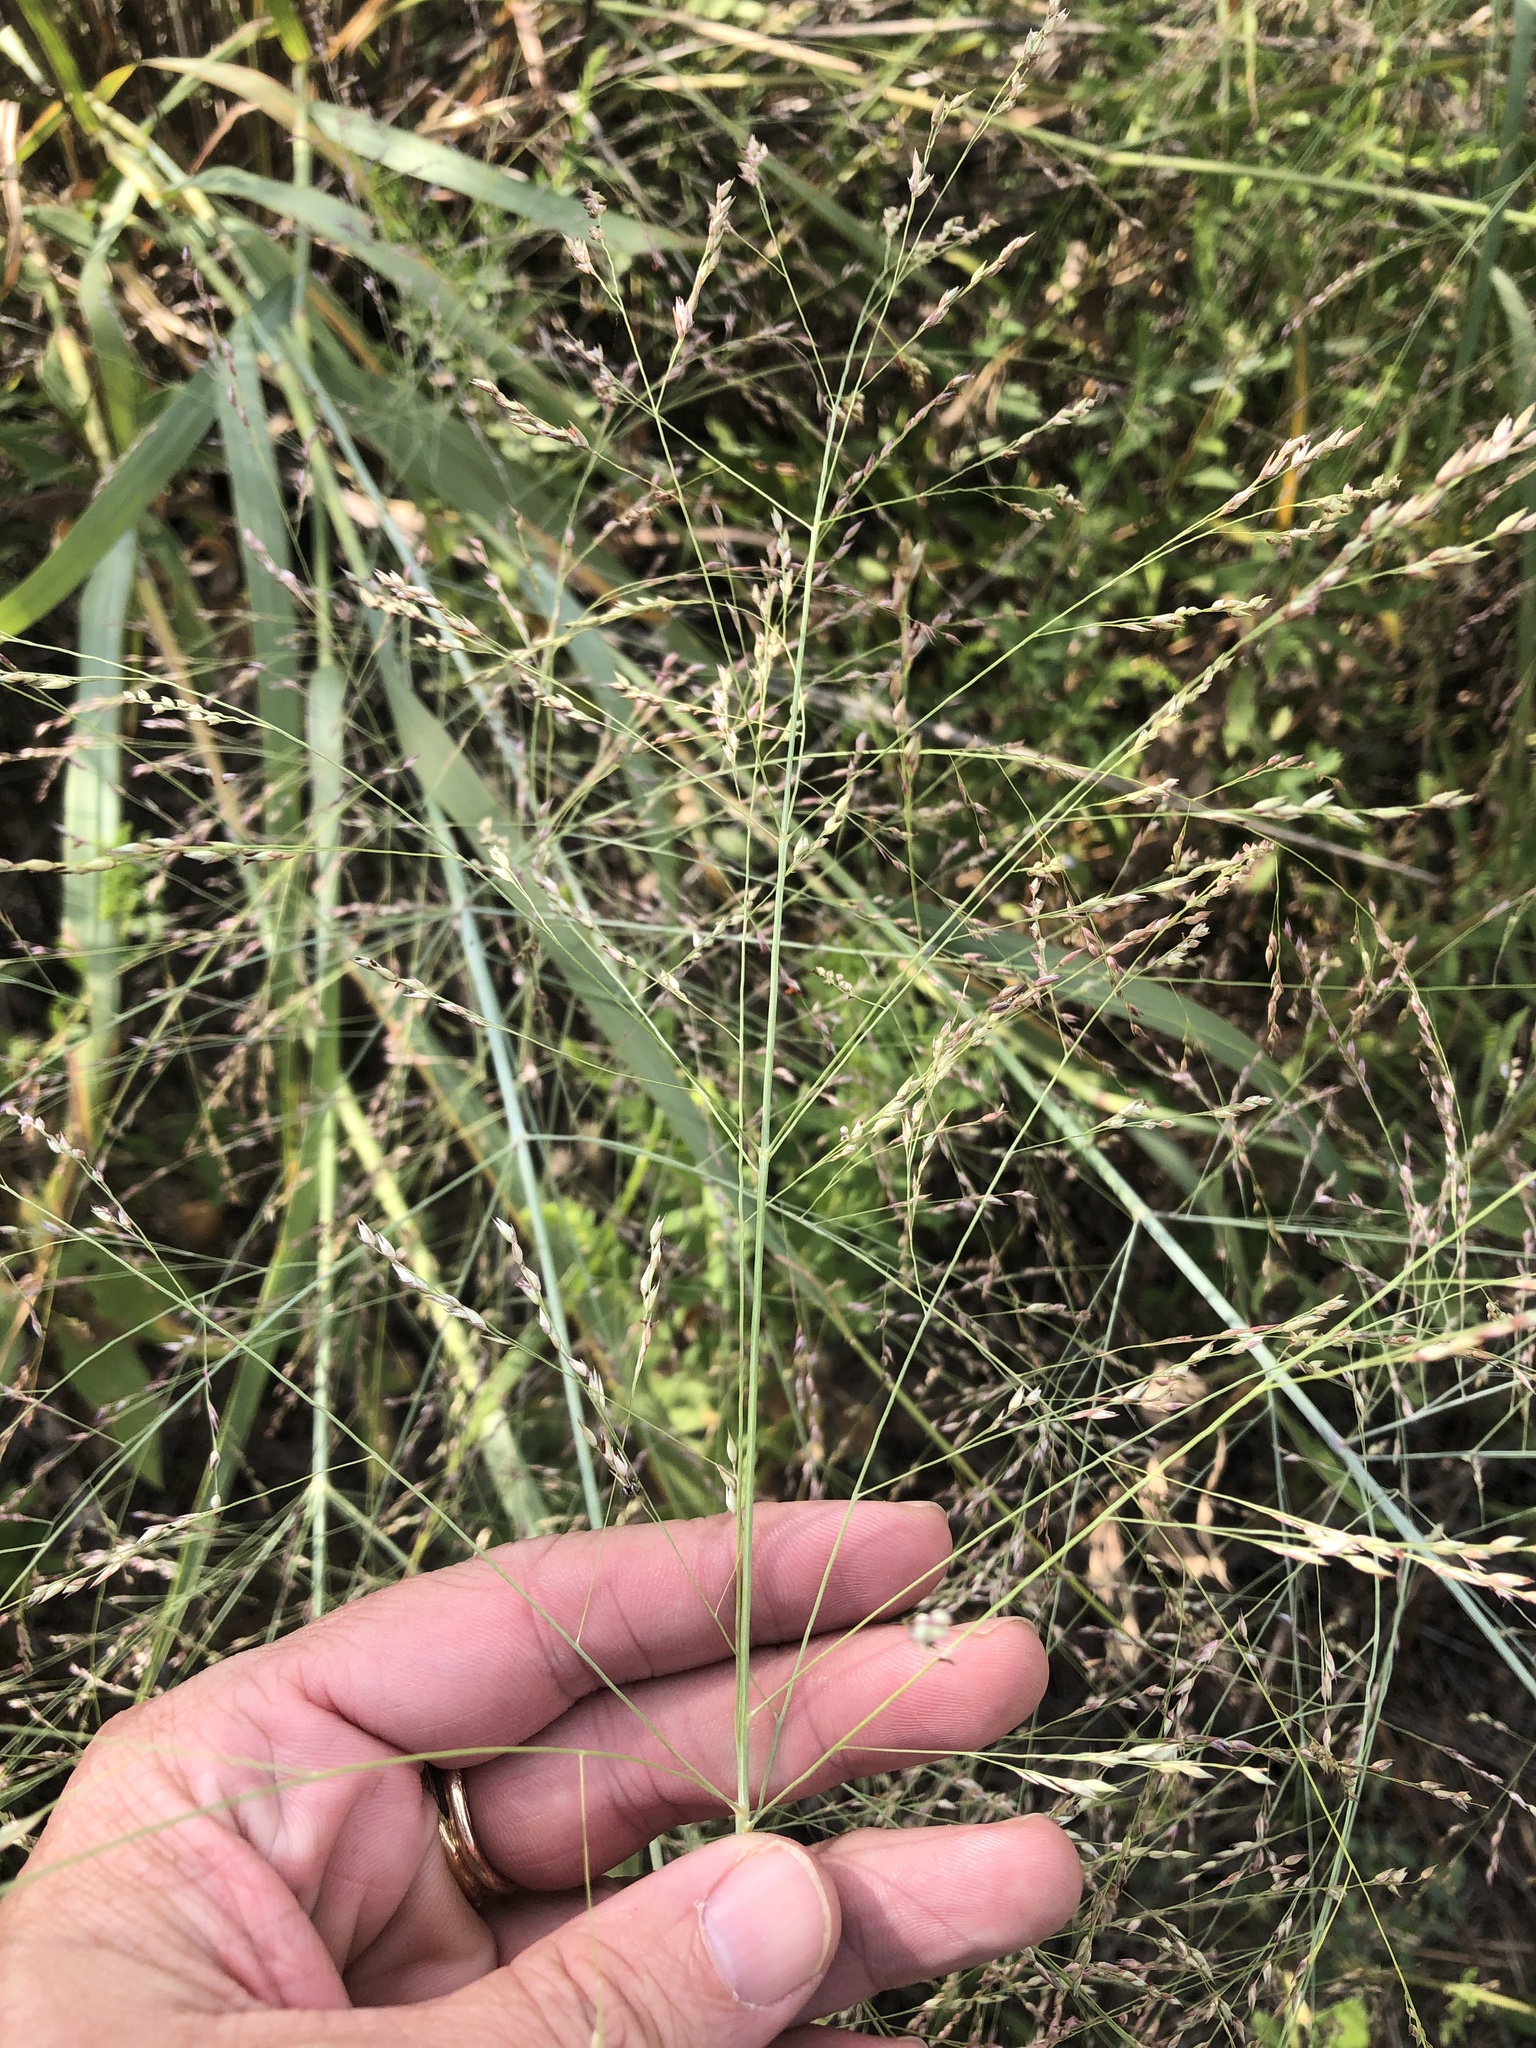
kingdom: Plantae
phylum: Tracheophyta
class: Liliopsida
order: Poales
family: Poaceae
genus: Panicum
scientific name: Panicum virgatum
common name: Switchgrass
